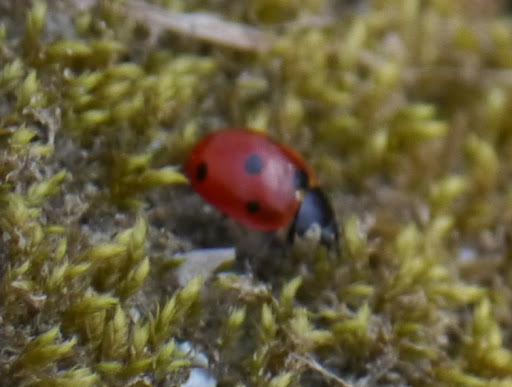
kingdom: Animalia
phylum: Arthropoda
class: Insecta
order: Coleoptera
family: Coccinellidae
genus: Coccinella
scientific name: Coccinella septempunctata
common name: Sevenspotted lady beetle
